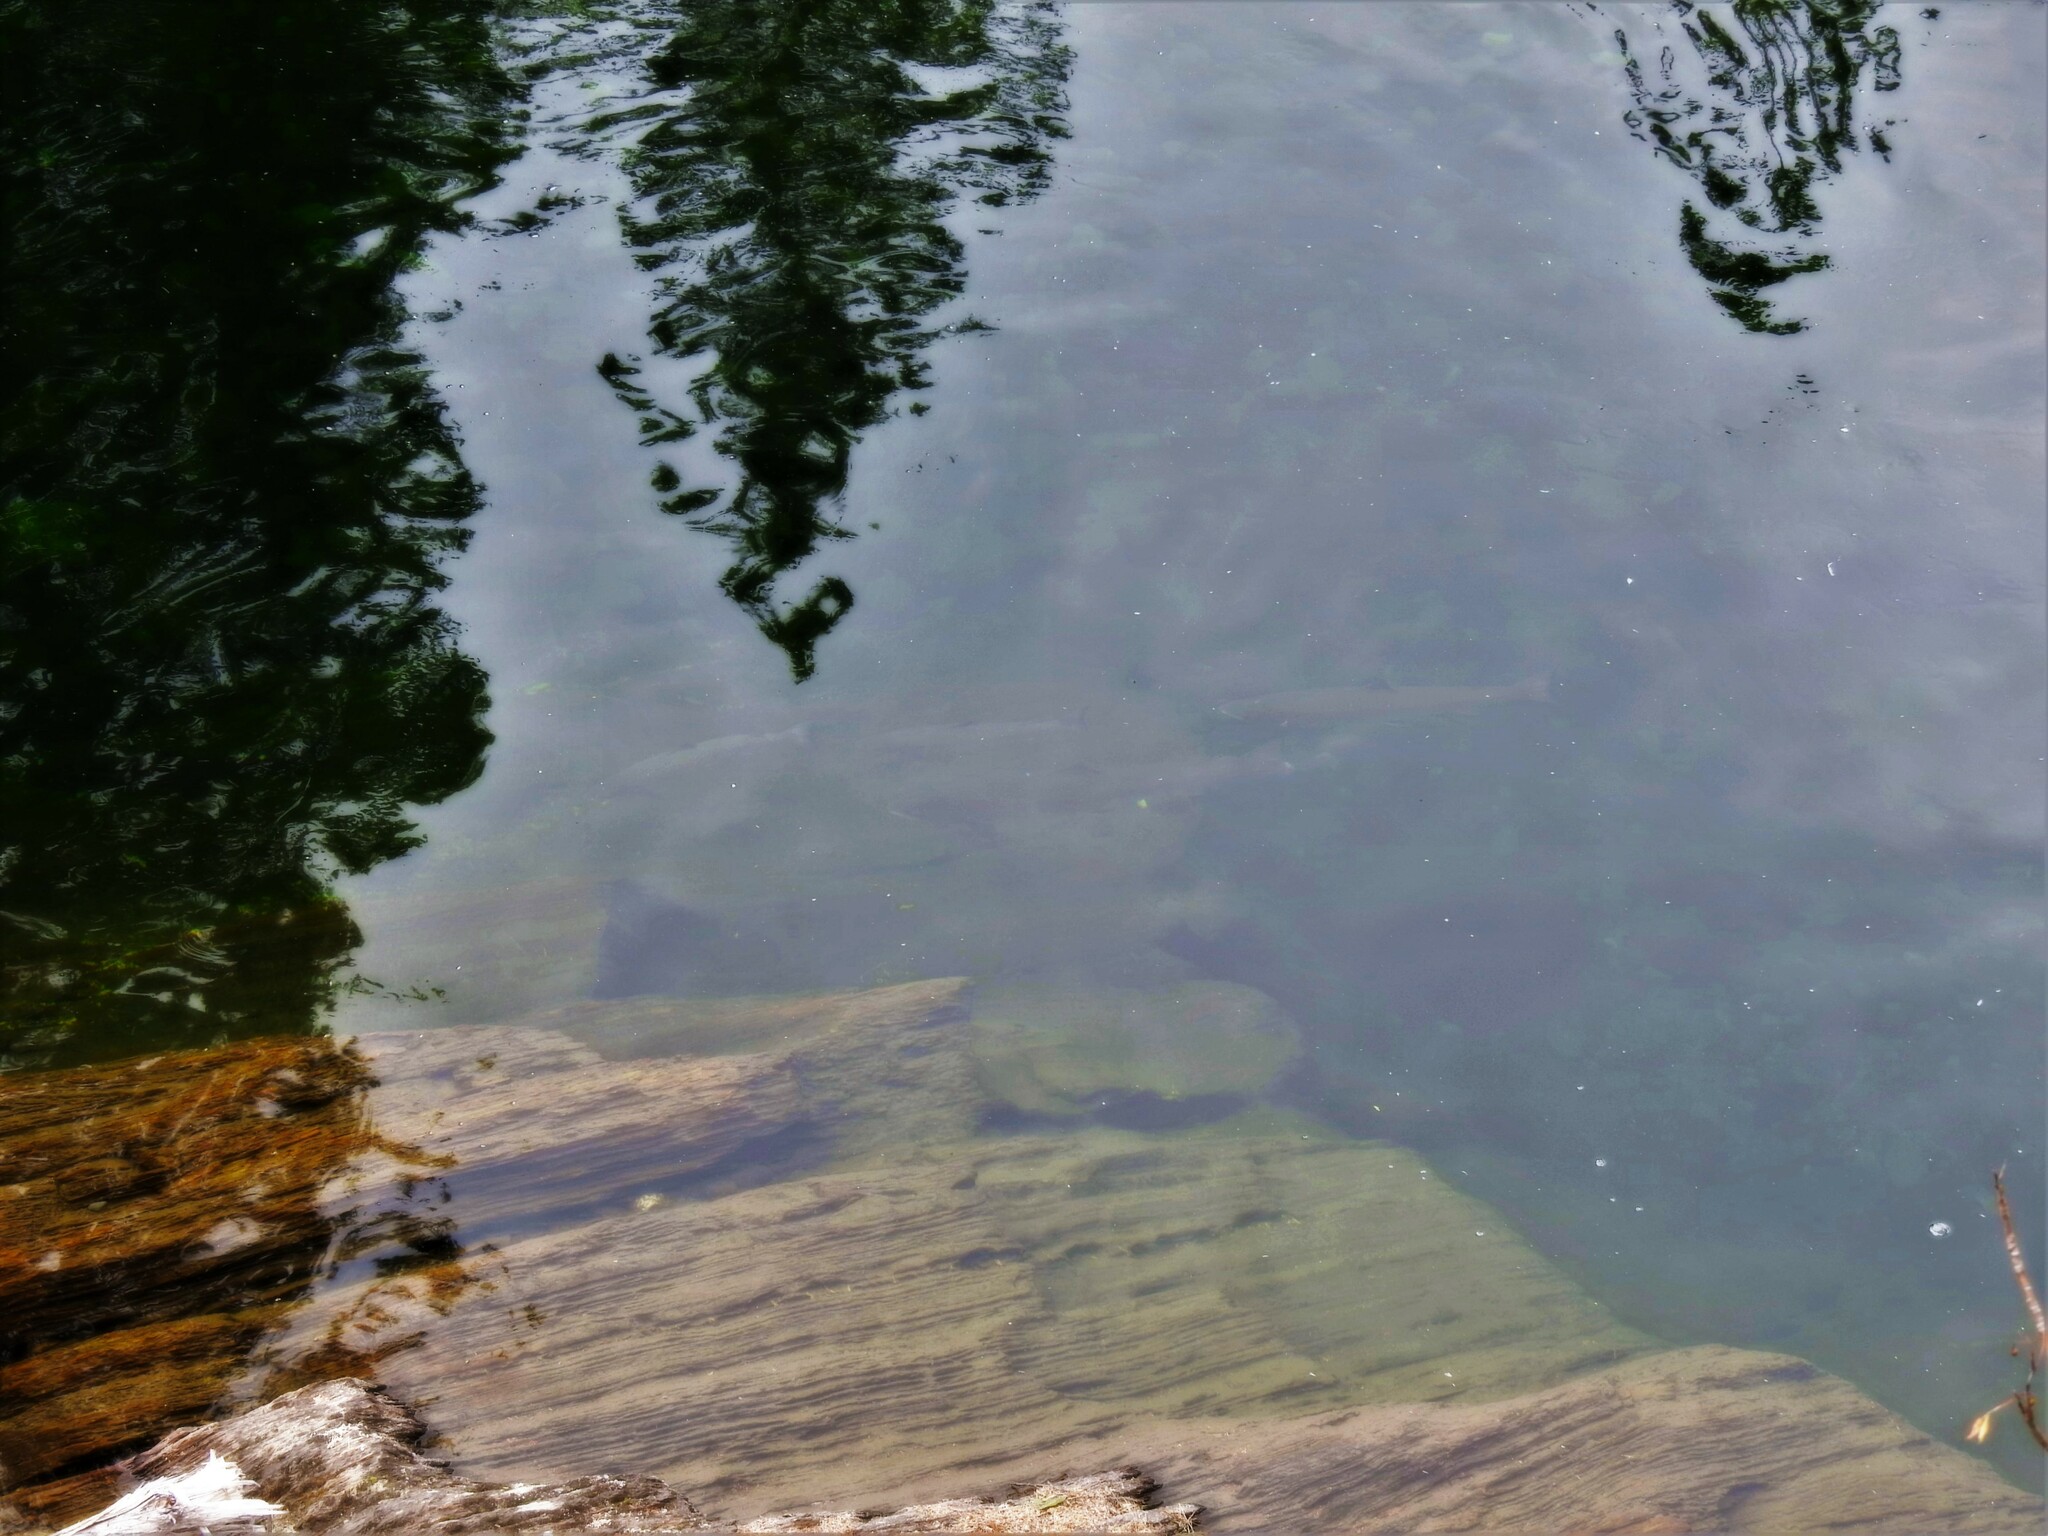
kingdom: Animalia
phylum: Chordata
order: Salmoniformes
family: Salmonidae
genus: Salmo
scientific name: Salmo salar
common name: Atlantic salmon
